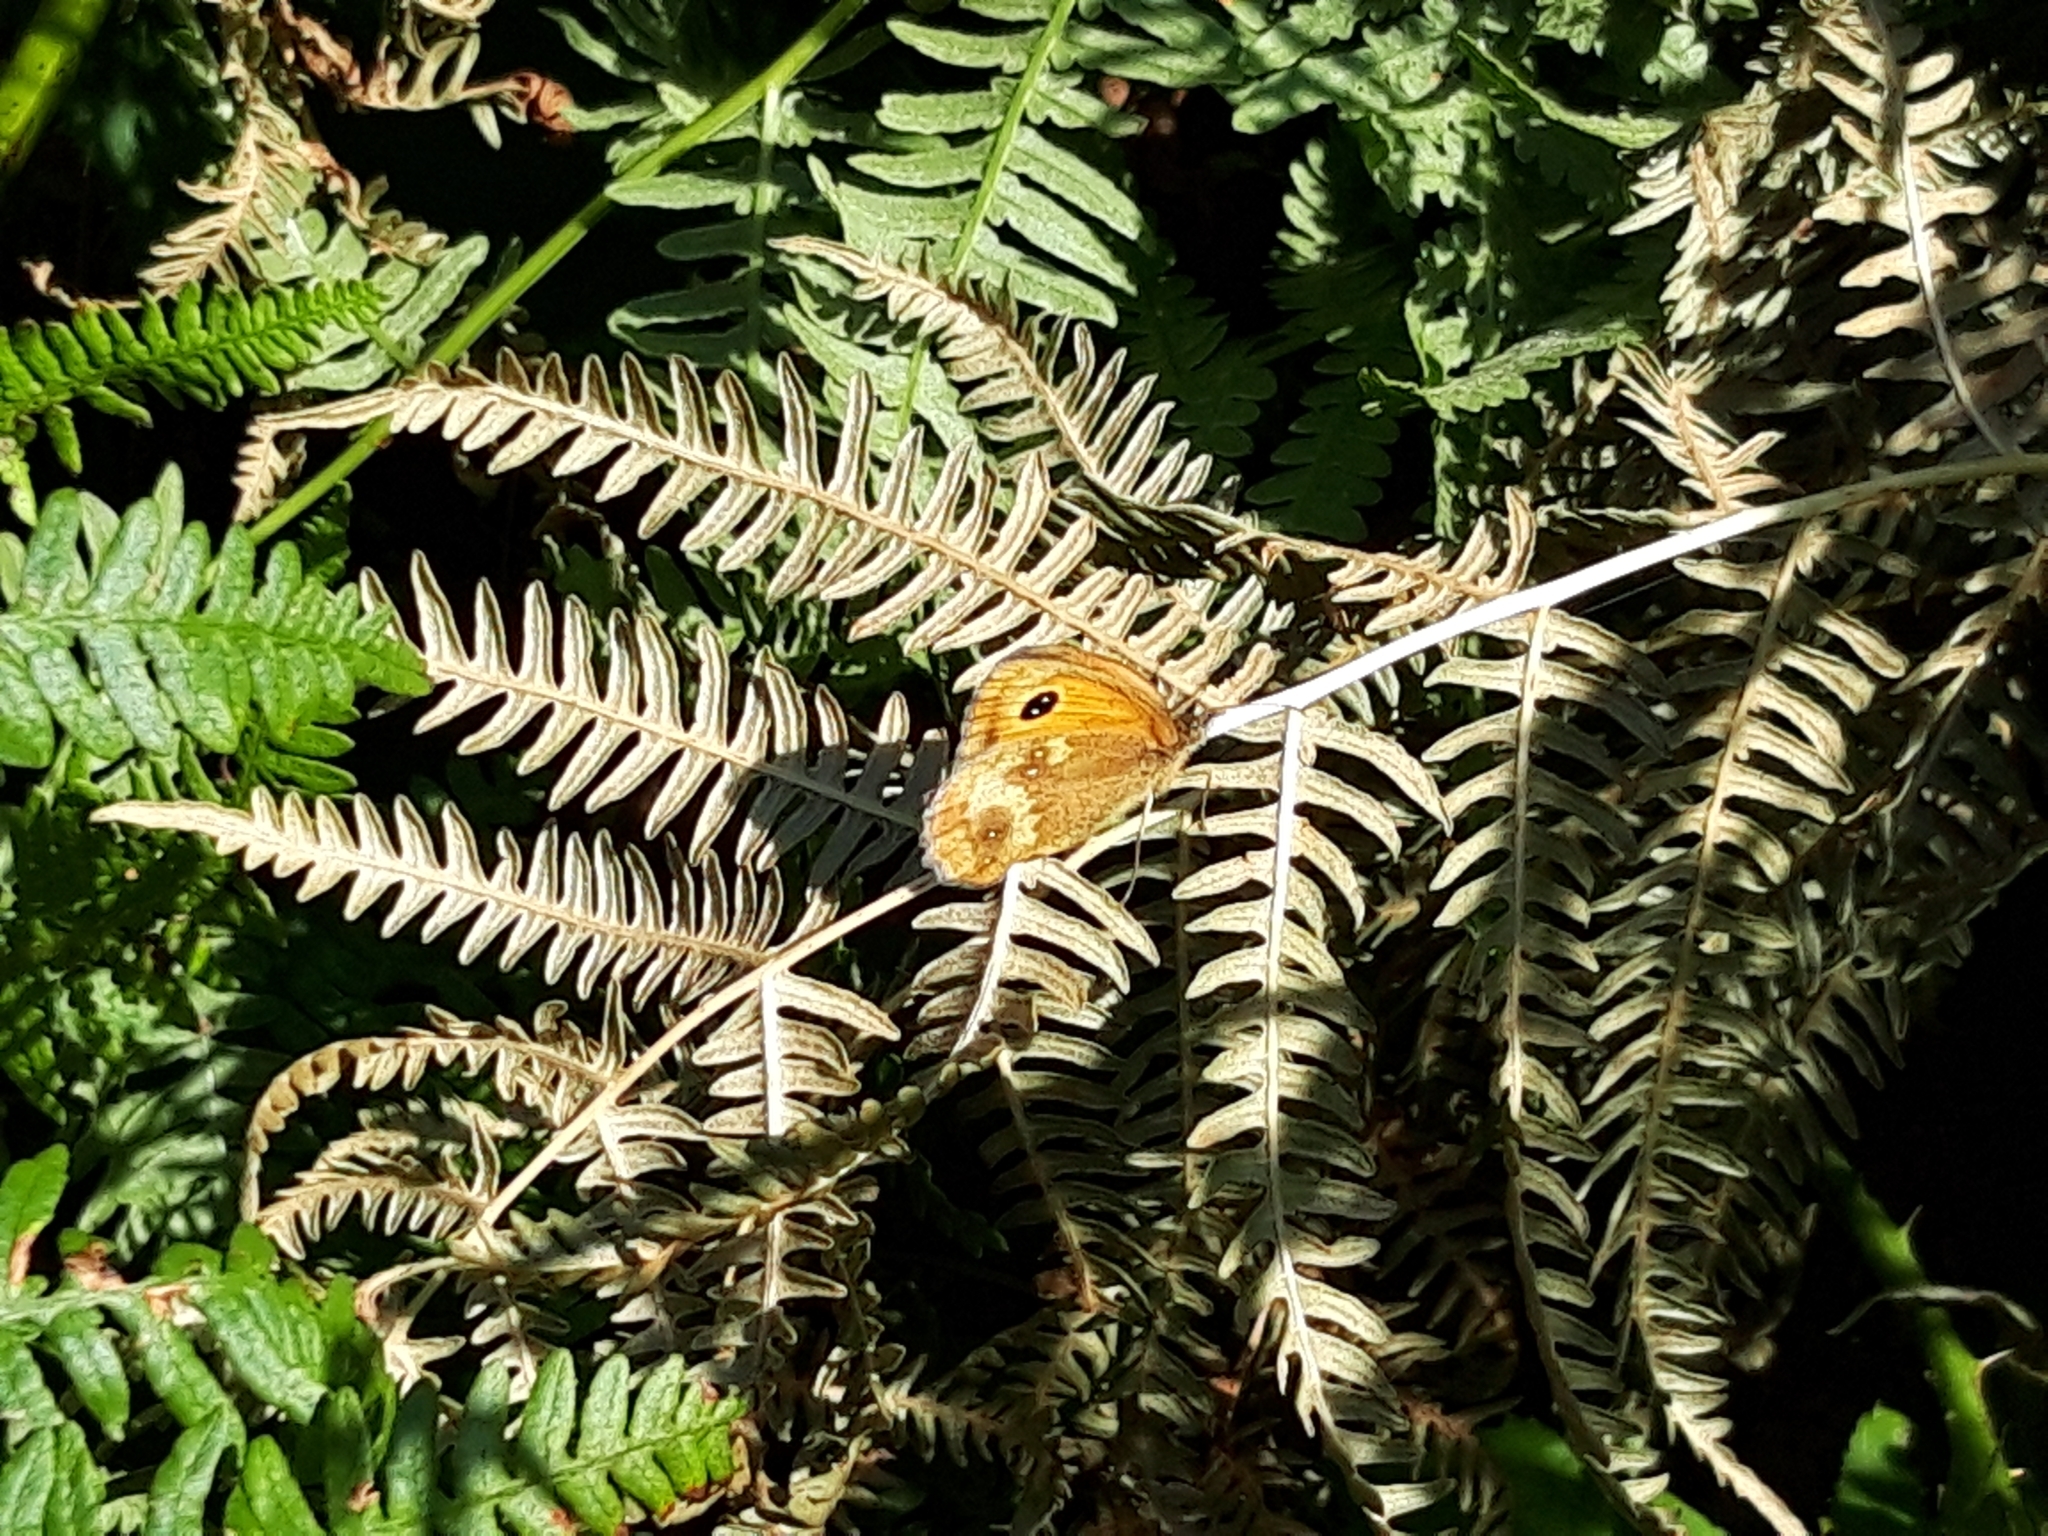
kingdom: Animalia
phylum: Arthropoda
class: Insecta
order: Lepidoptera
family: Nymphalidae
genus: Pyronia
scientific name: Pyronia tithonus
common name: Gatekeeper
